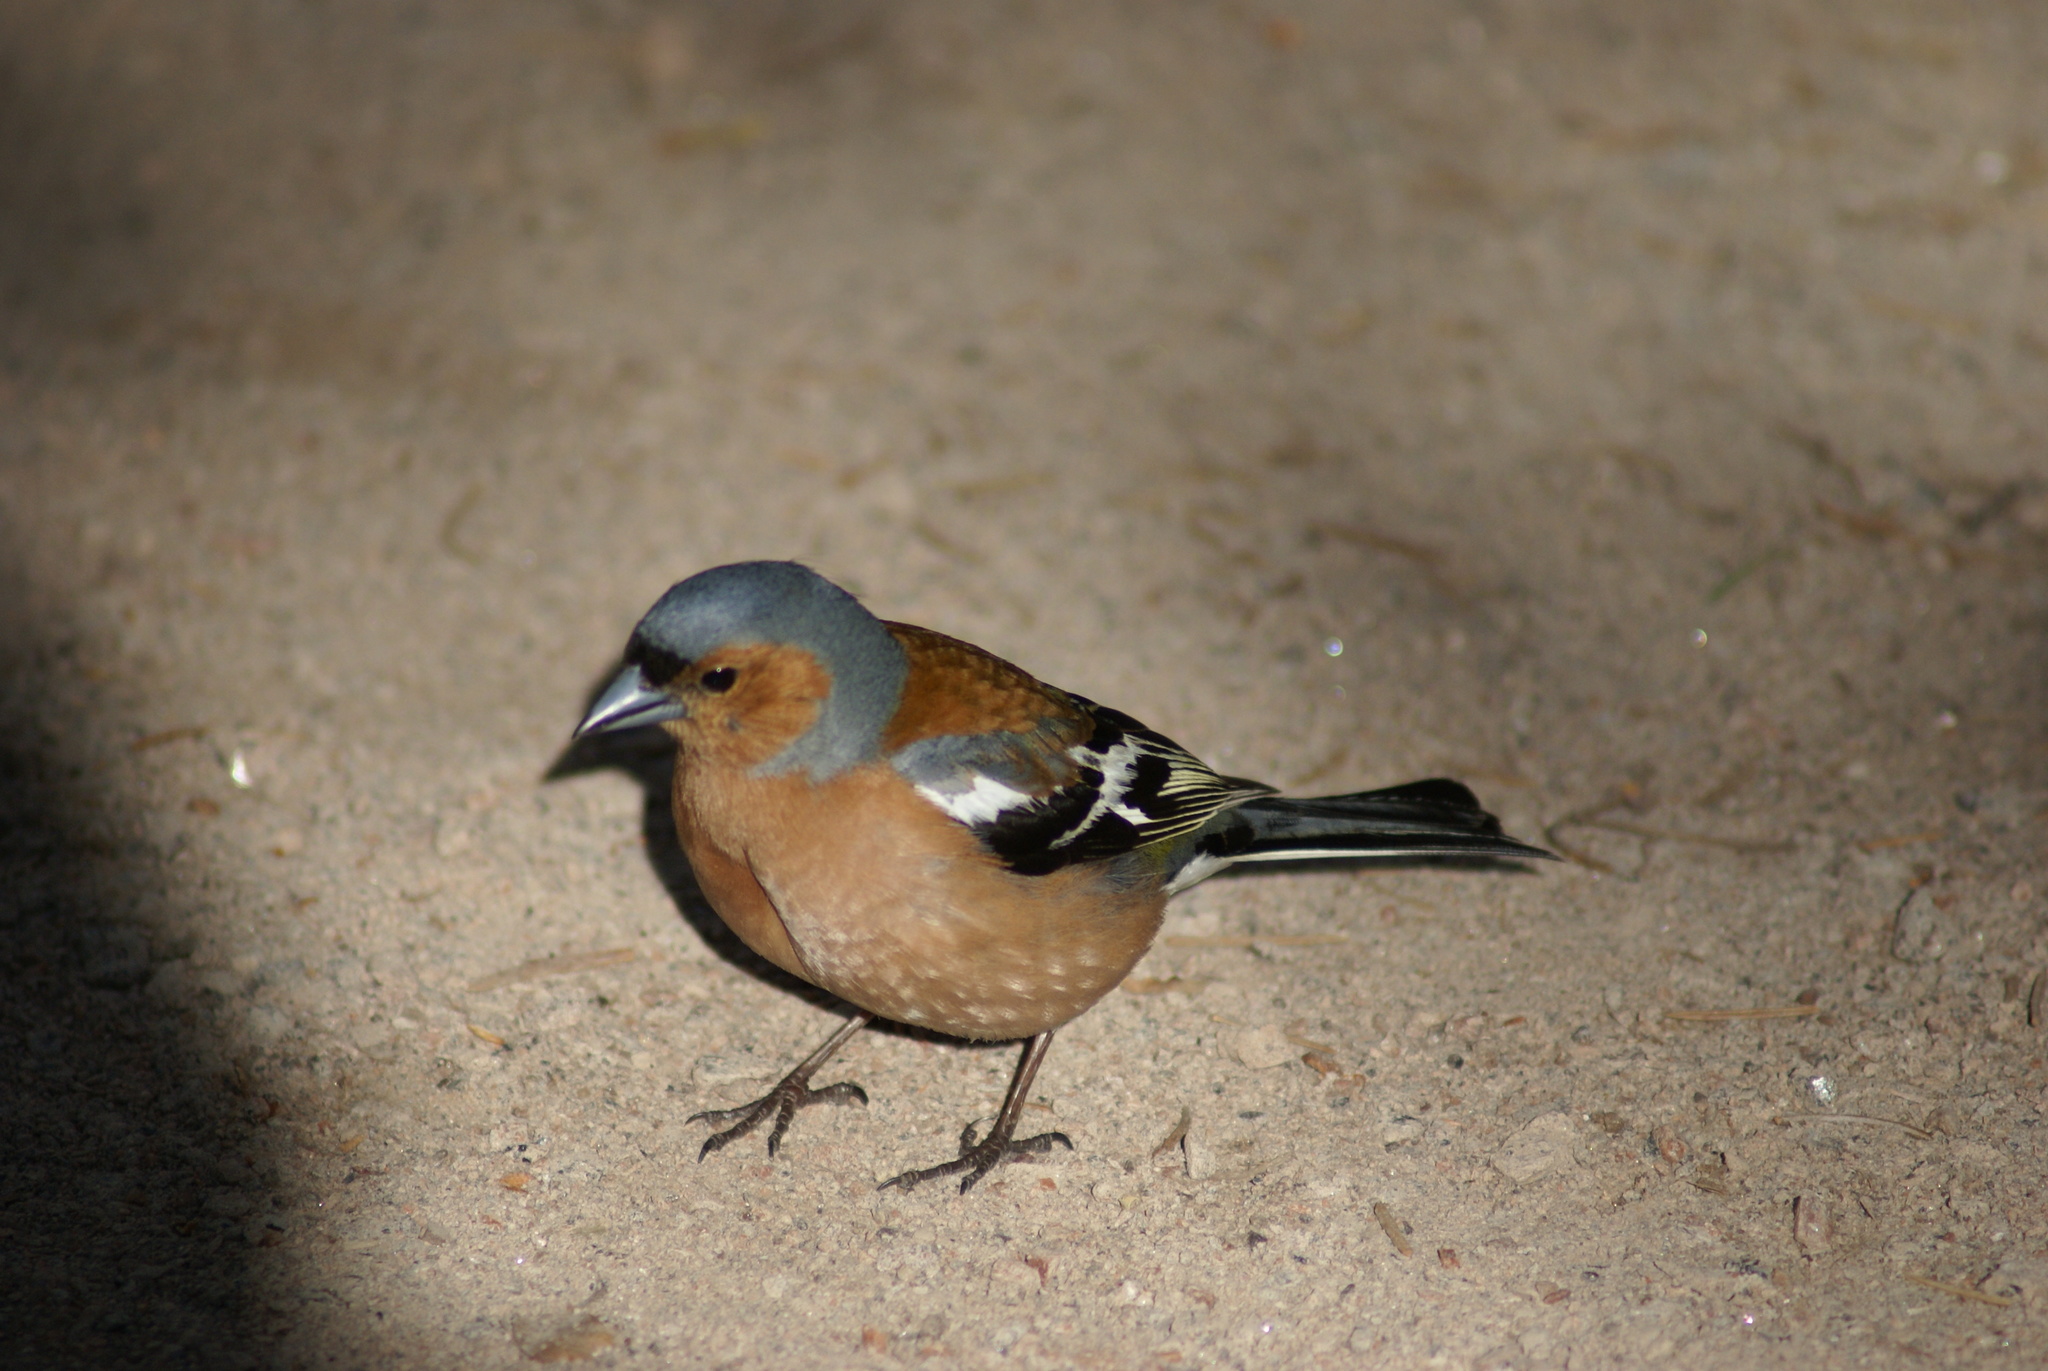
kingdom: Animalia
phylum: Chordata
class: Aves
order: Passeriformes
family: Fringillidae
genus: Fringilla
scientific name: Fringilla coelebs
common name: Common chaffinch
